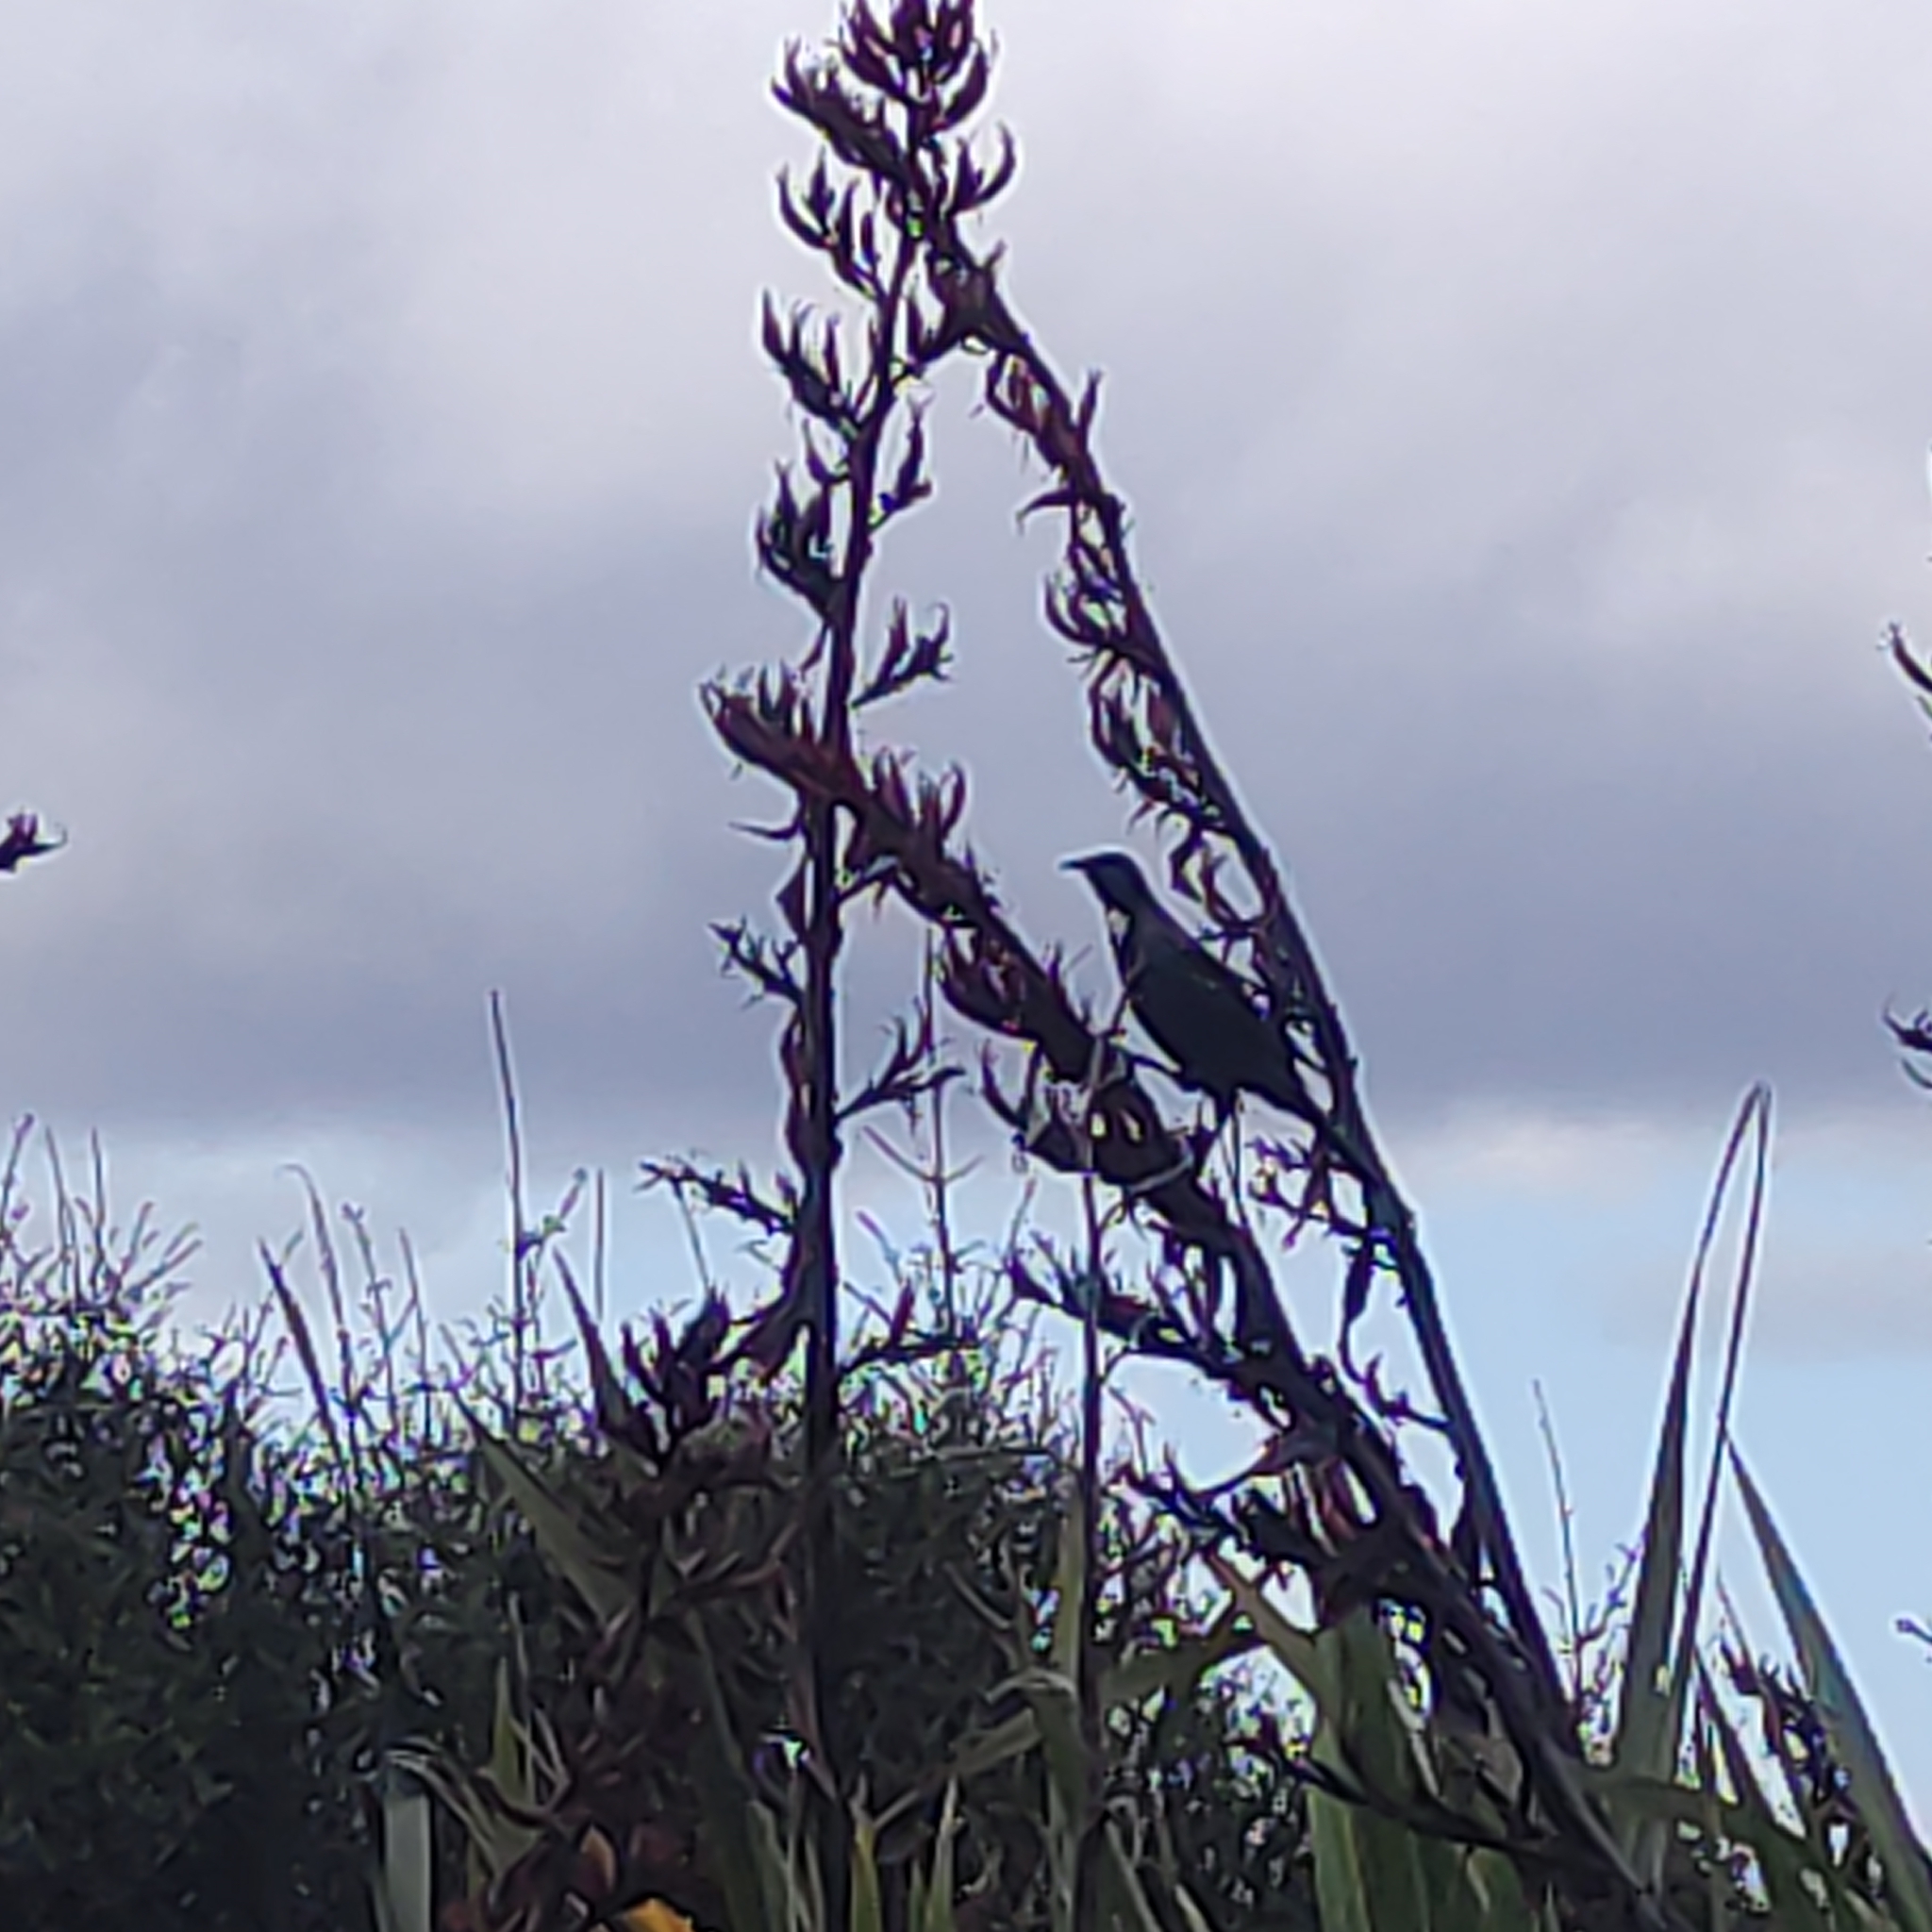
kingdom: Animalia
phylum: Chordata
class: Aves
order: Passeriformes
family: Meliphagidae
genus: Prosthemadera
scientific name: Prosthemadera novaeseelandiae
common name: Tui
